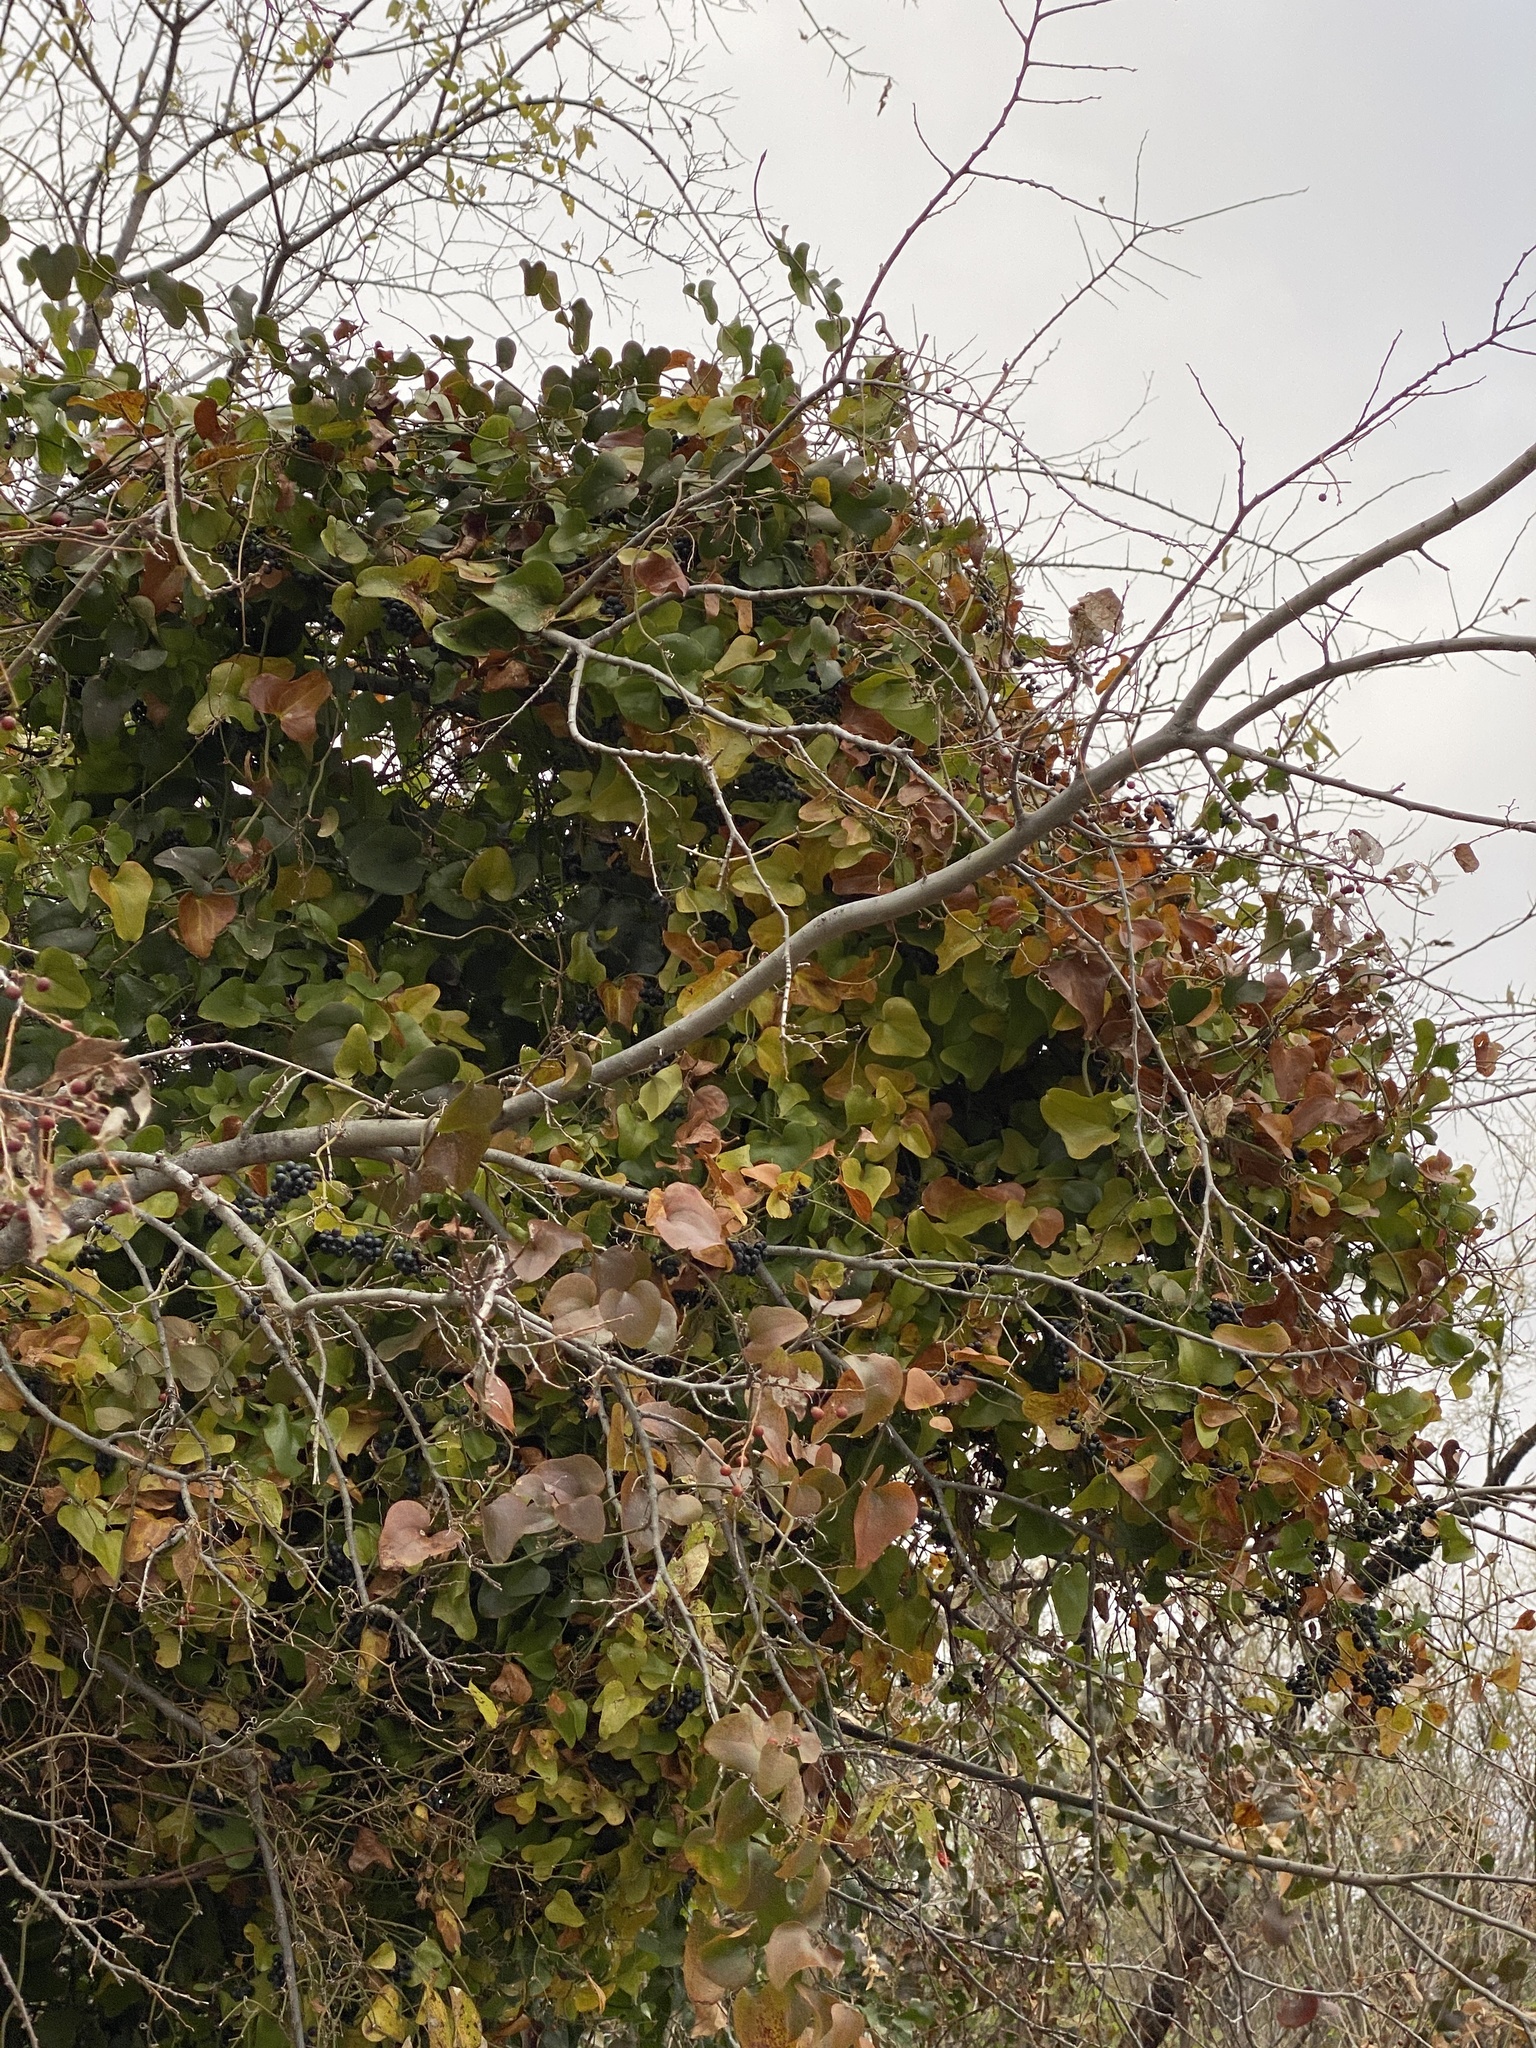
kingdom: Plantae
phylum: Tracheophyta
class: Liliopsida
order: Liliales
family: Smilacaceae
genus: Smilax
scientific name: Smilax bona-nox
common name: Catbrier
